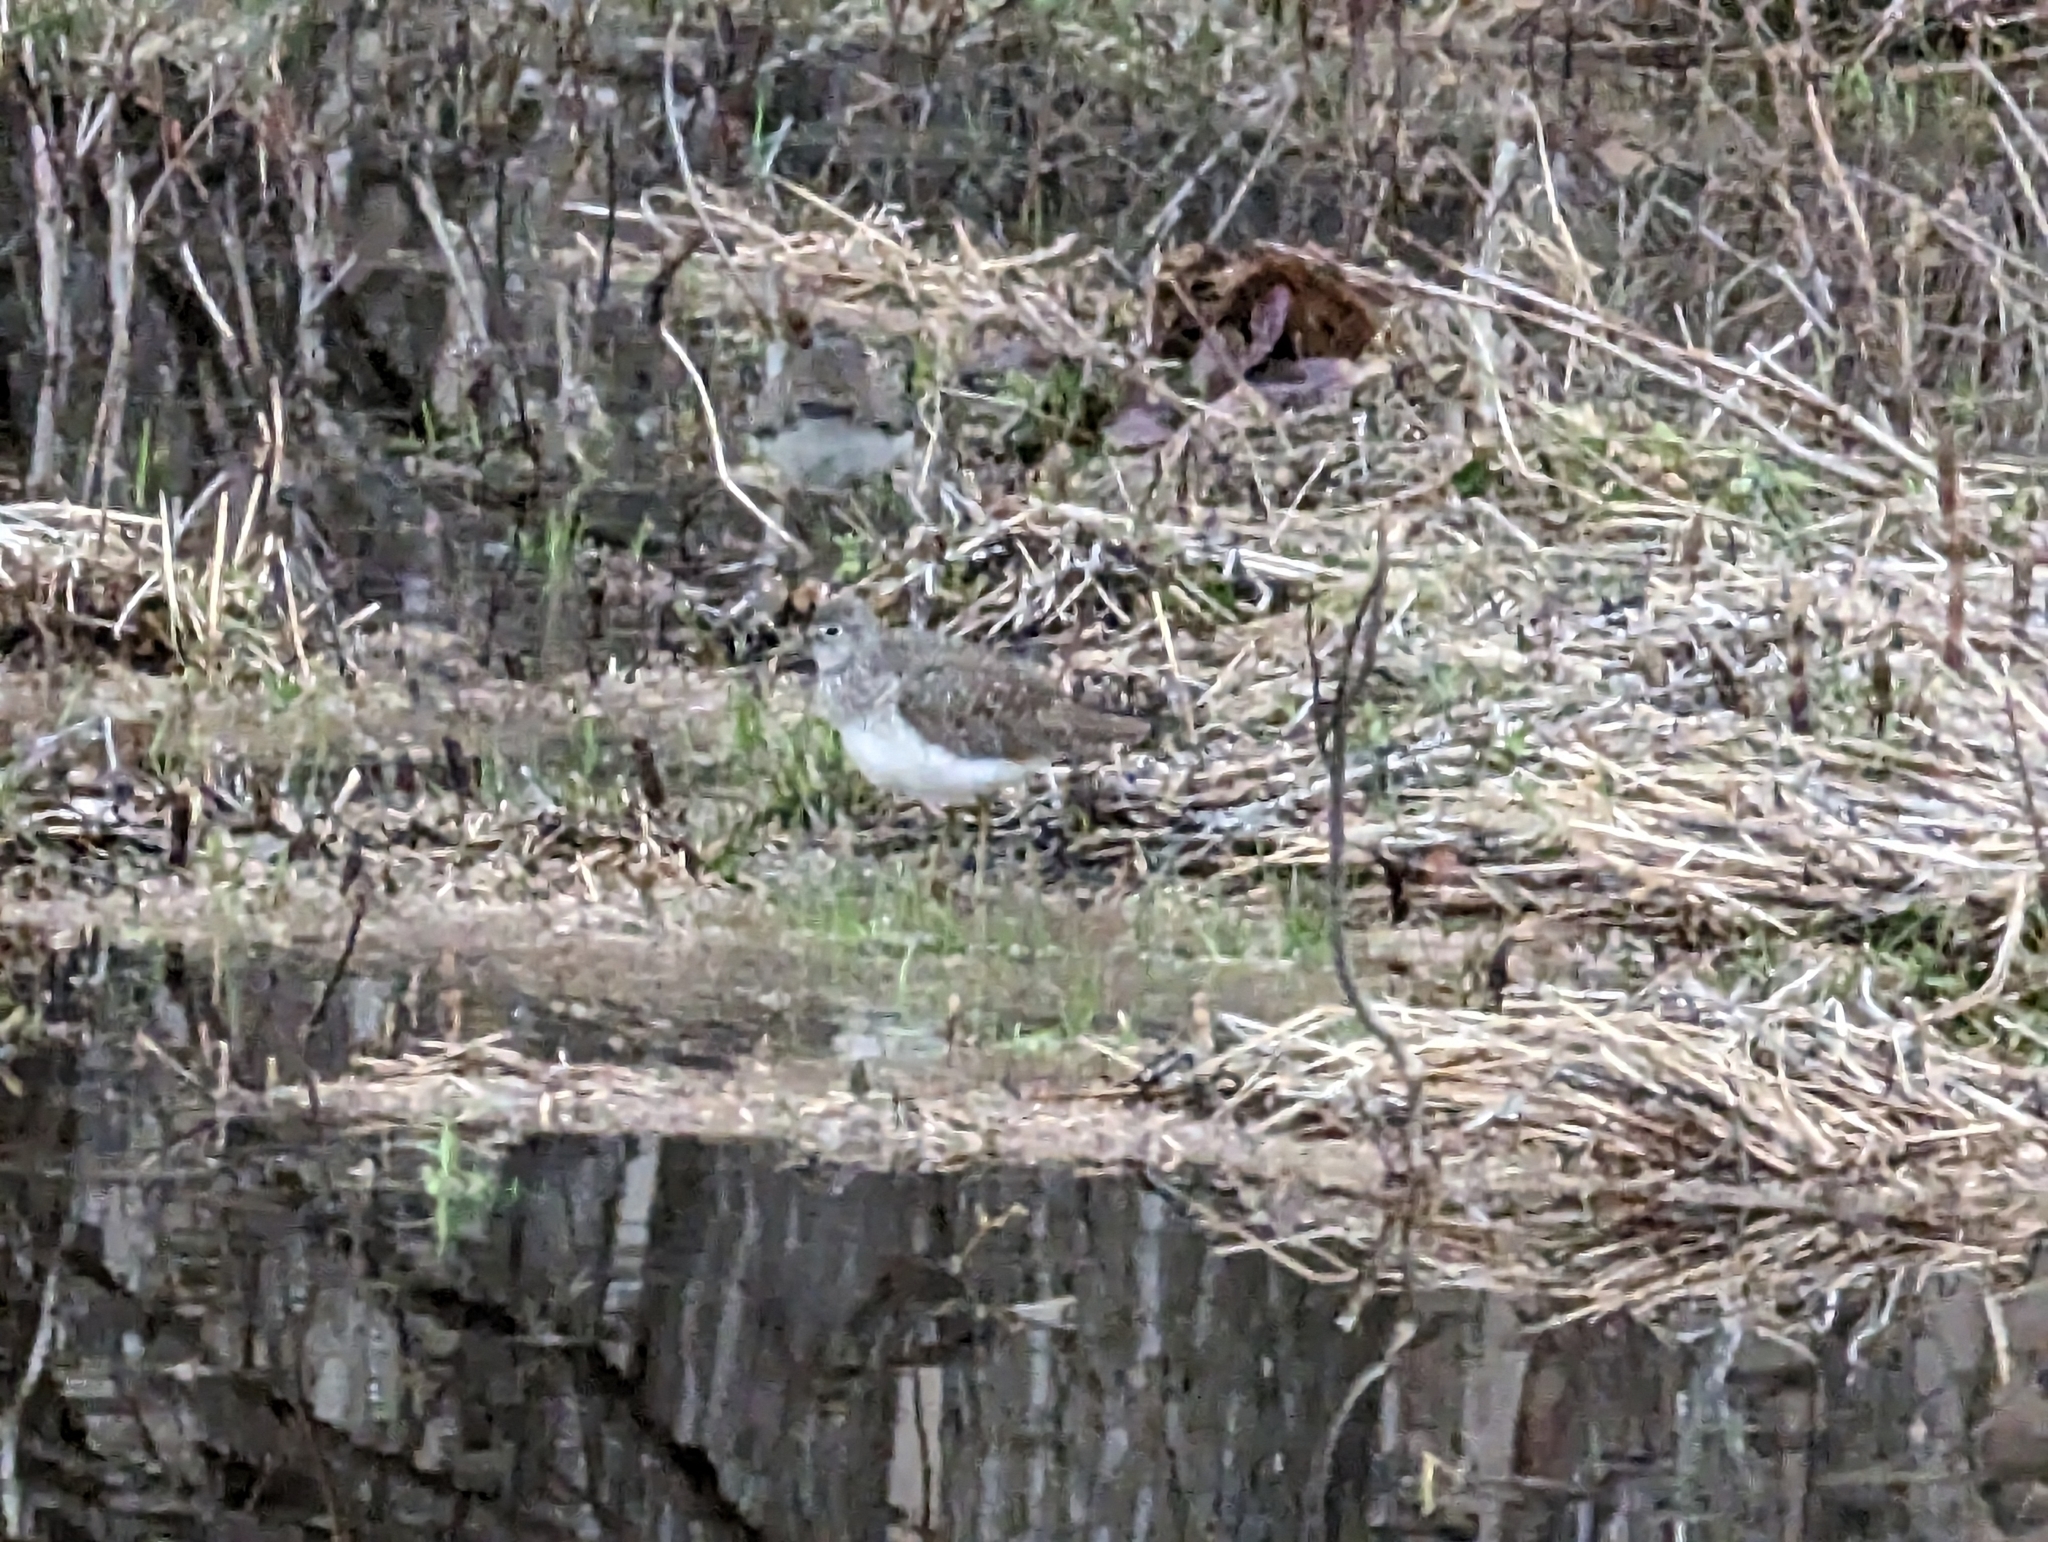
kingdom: Animalia
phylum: Chordata
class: Aves
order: Charadriiformes
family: Scolopacidae
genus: Tringa
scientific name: Tringa solitaria
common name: Solitary sandpiper
